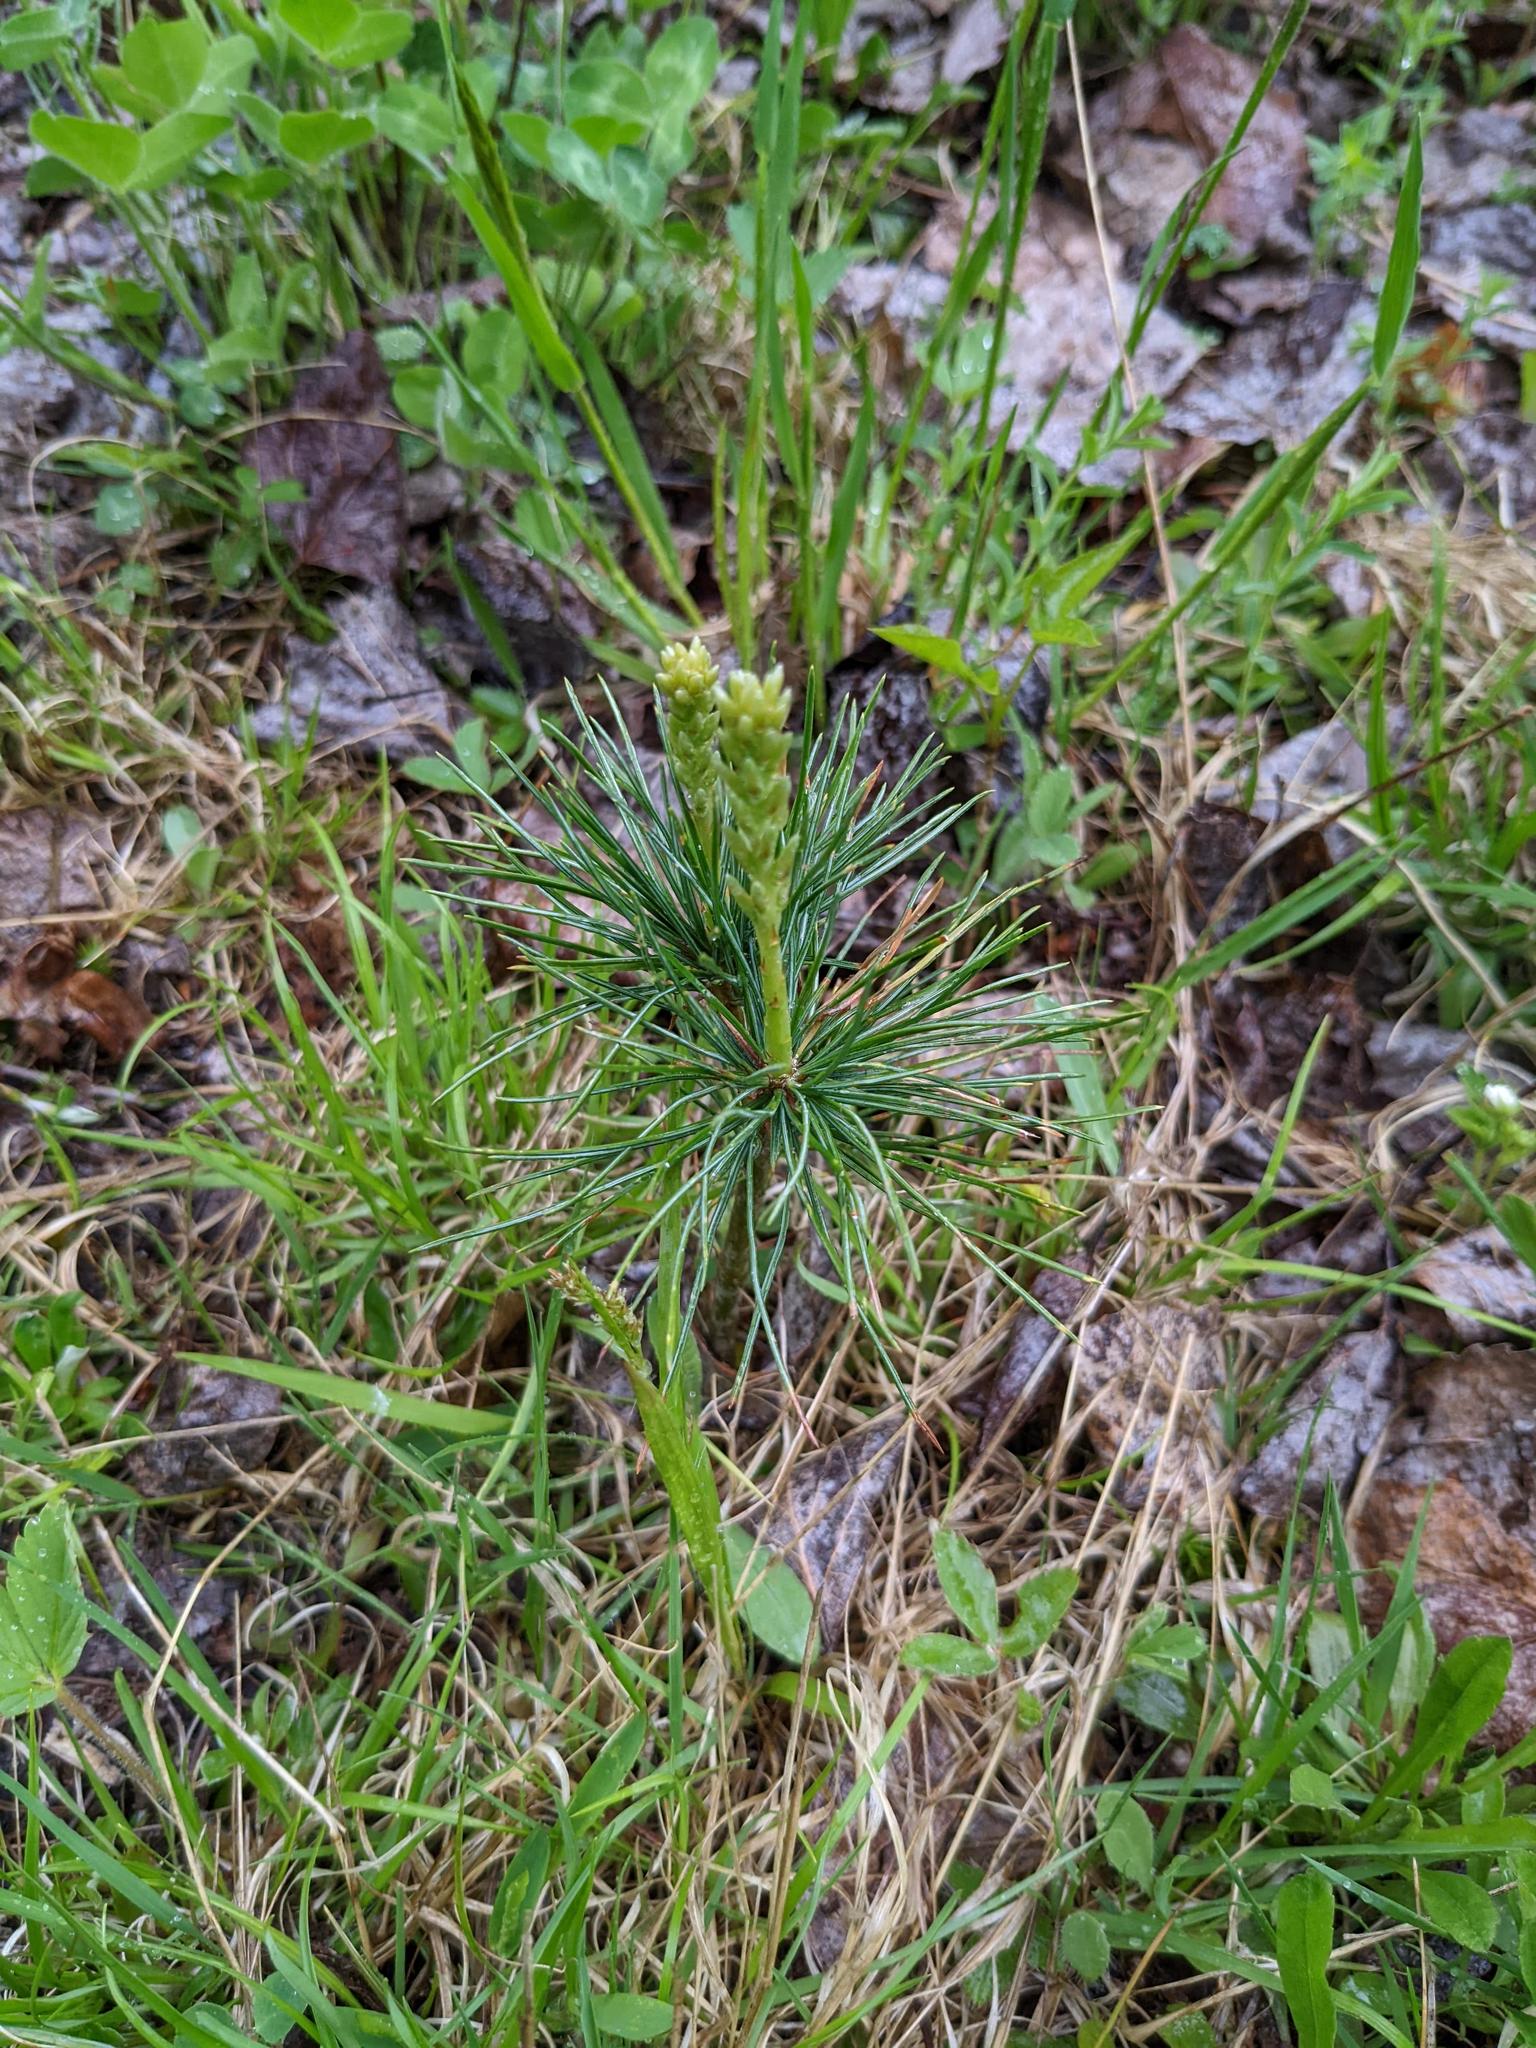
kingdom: Plantae
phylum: Tracheophyta
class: Pinopsida
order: Pinales
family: Pinaceae
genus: Pinus
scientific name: Pinus strobus
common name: Weymouth pine
